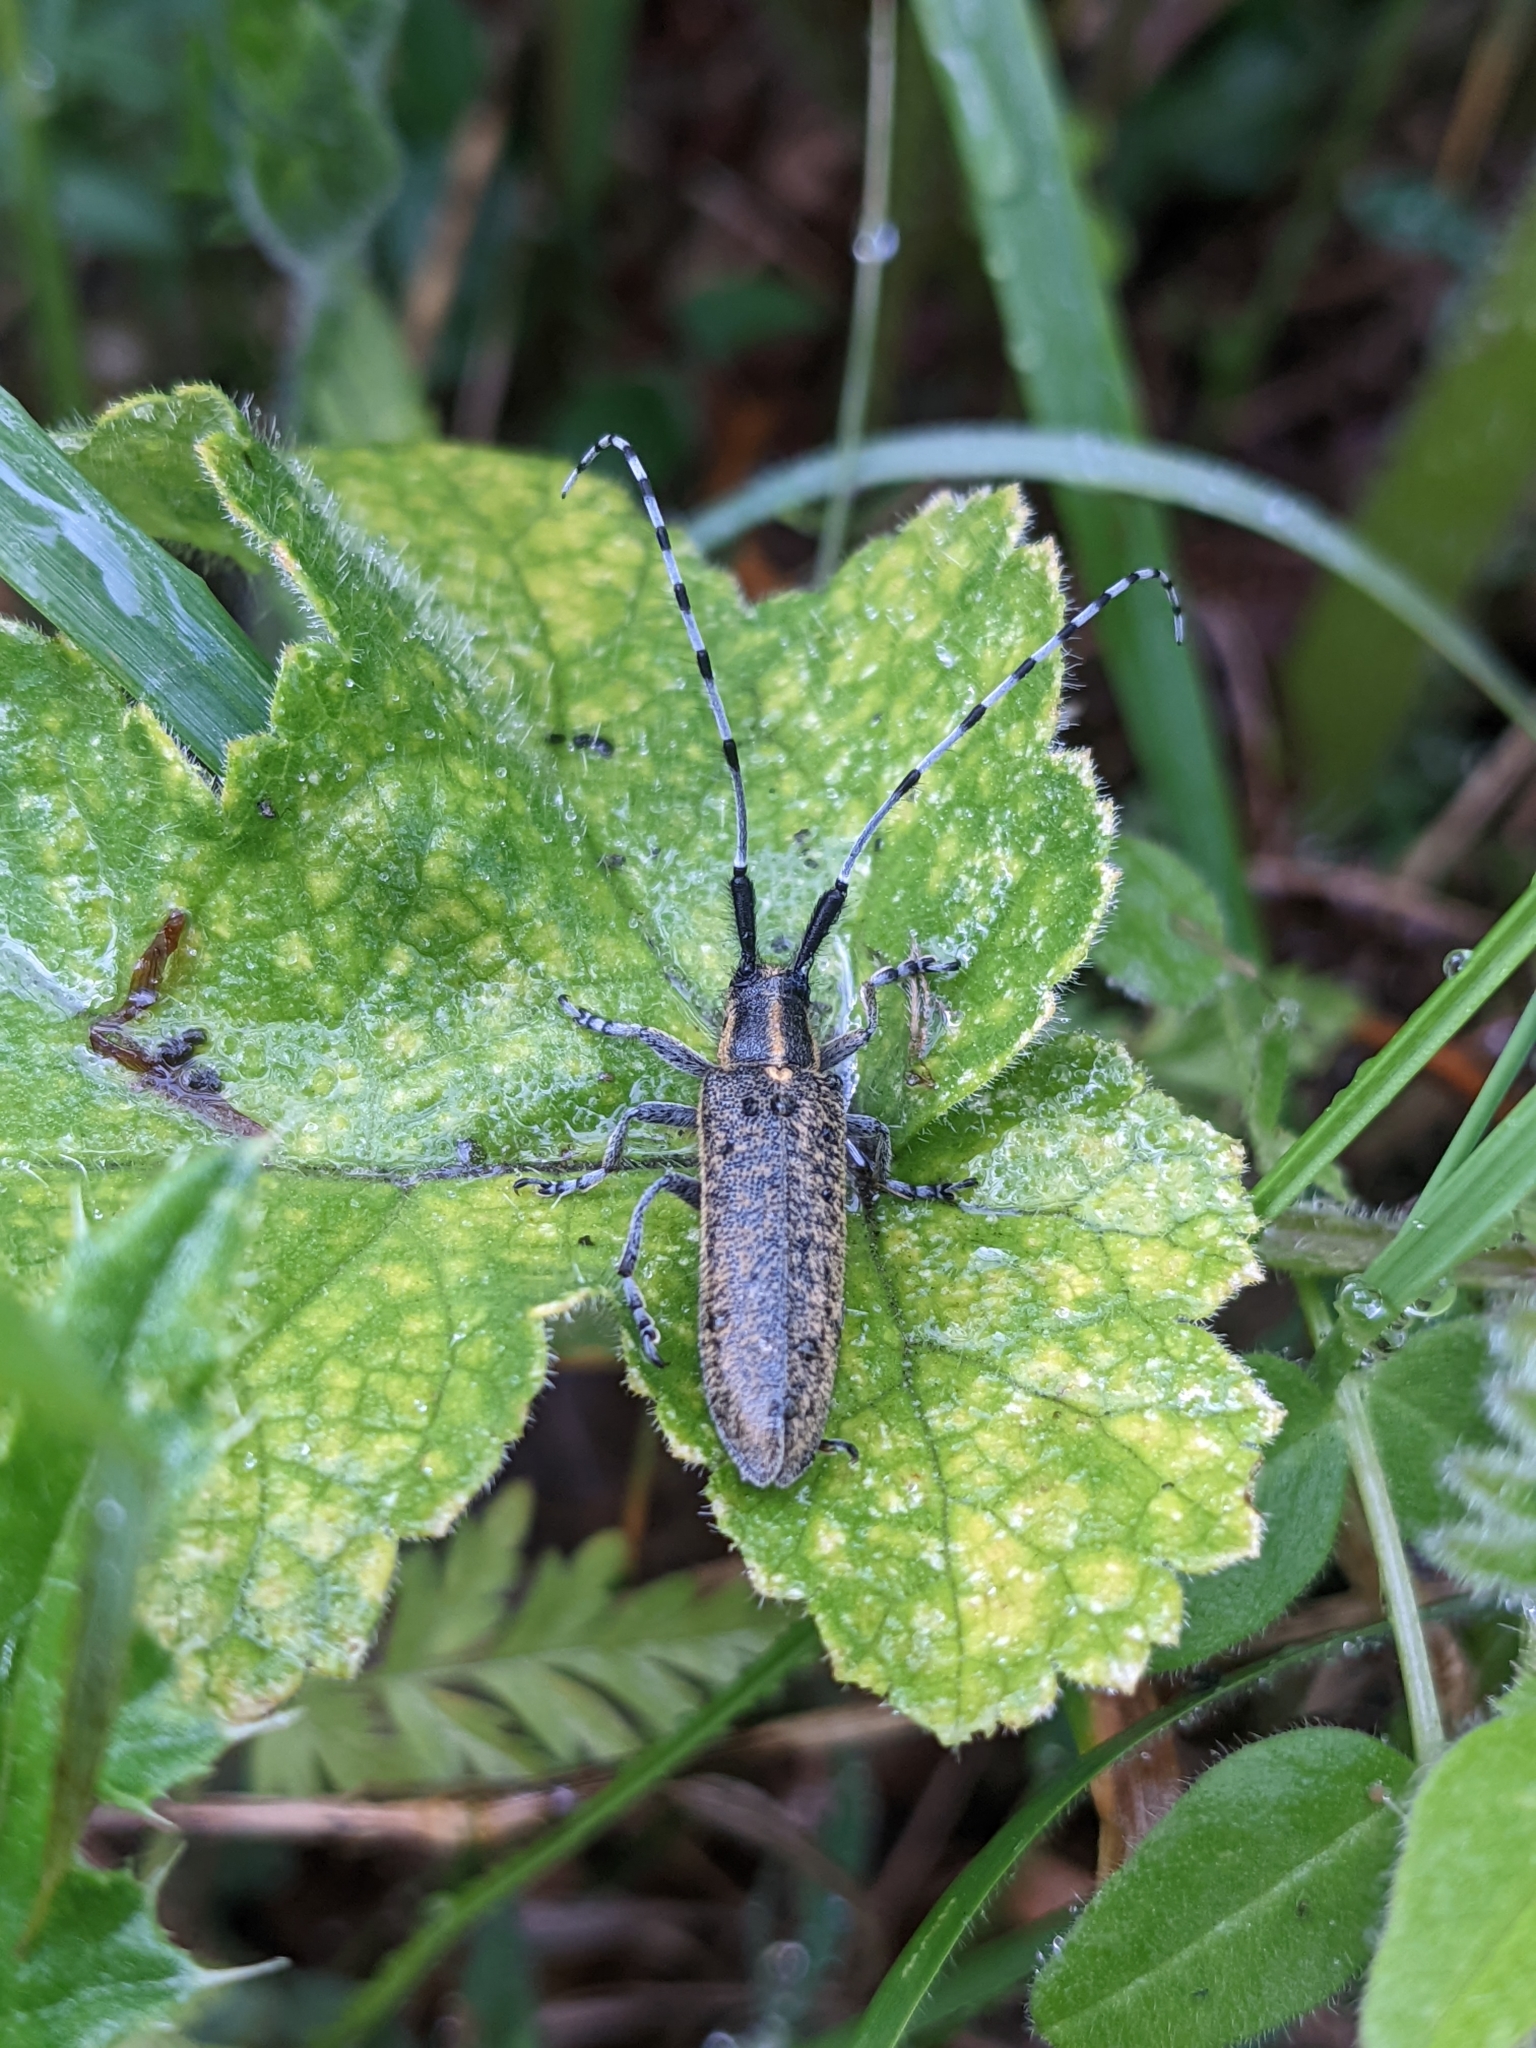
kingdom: Animalia
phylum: Arthropoda
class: Insecta
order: Coleoptera
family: Cerambycidae
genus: Agapanthia
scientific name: Agapanthia villosoviridescens
